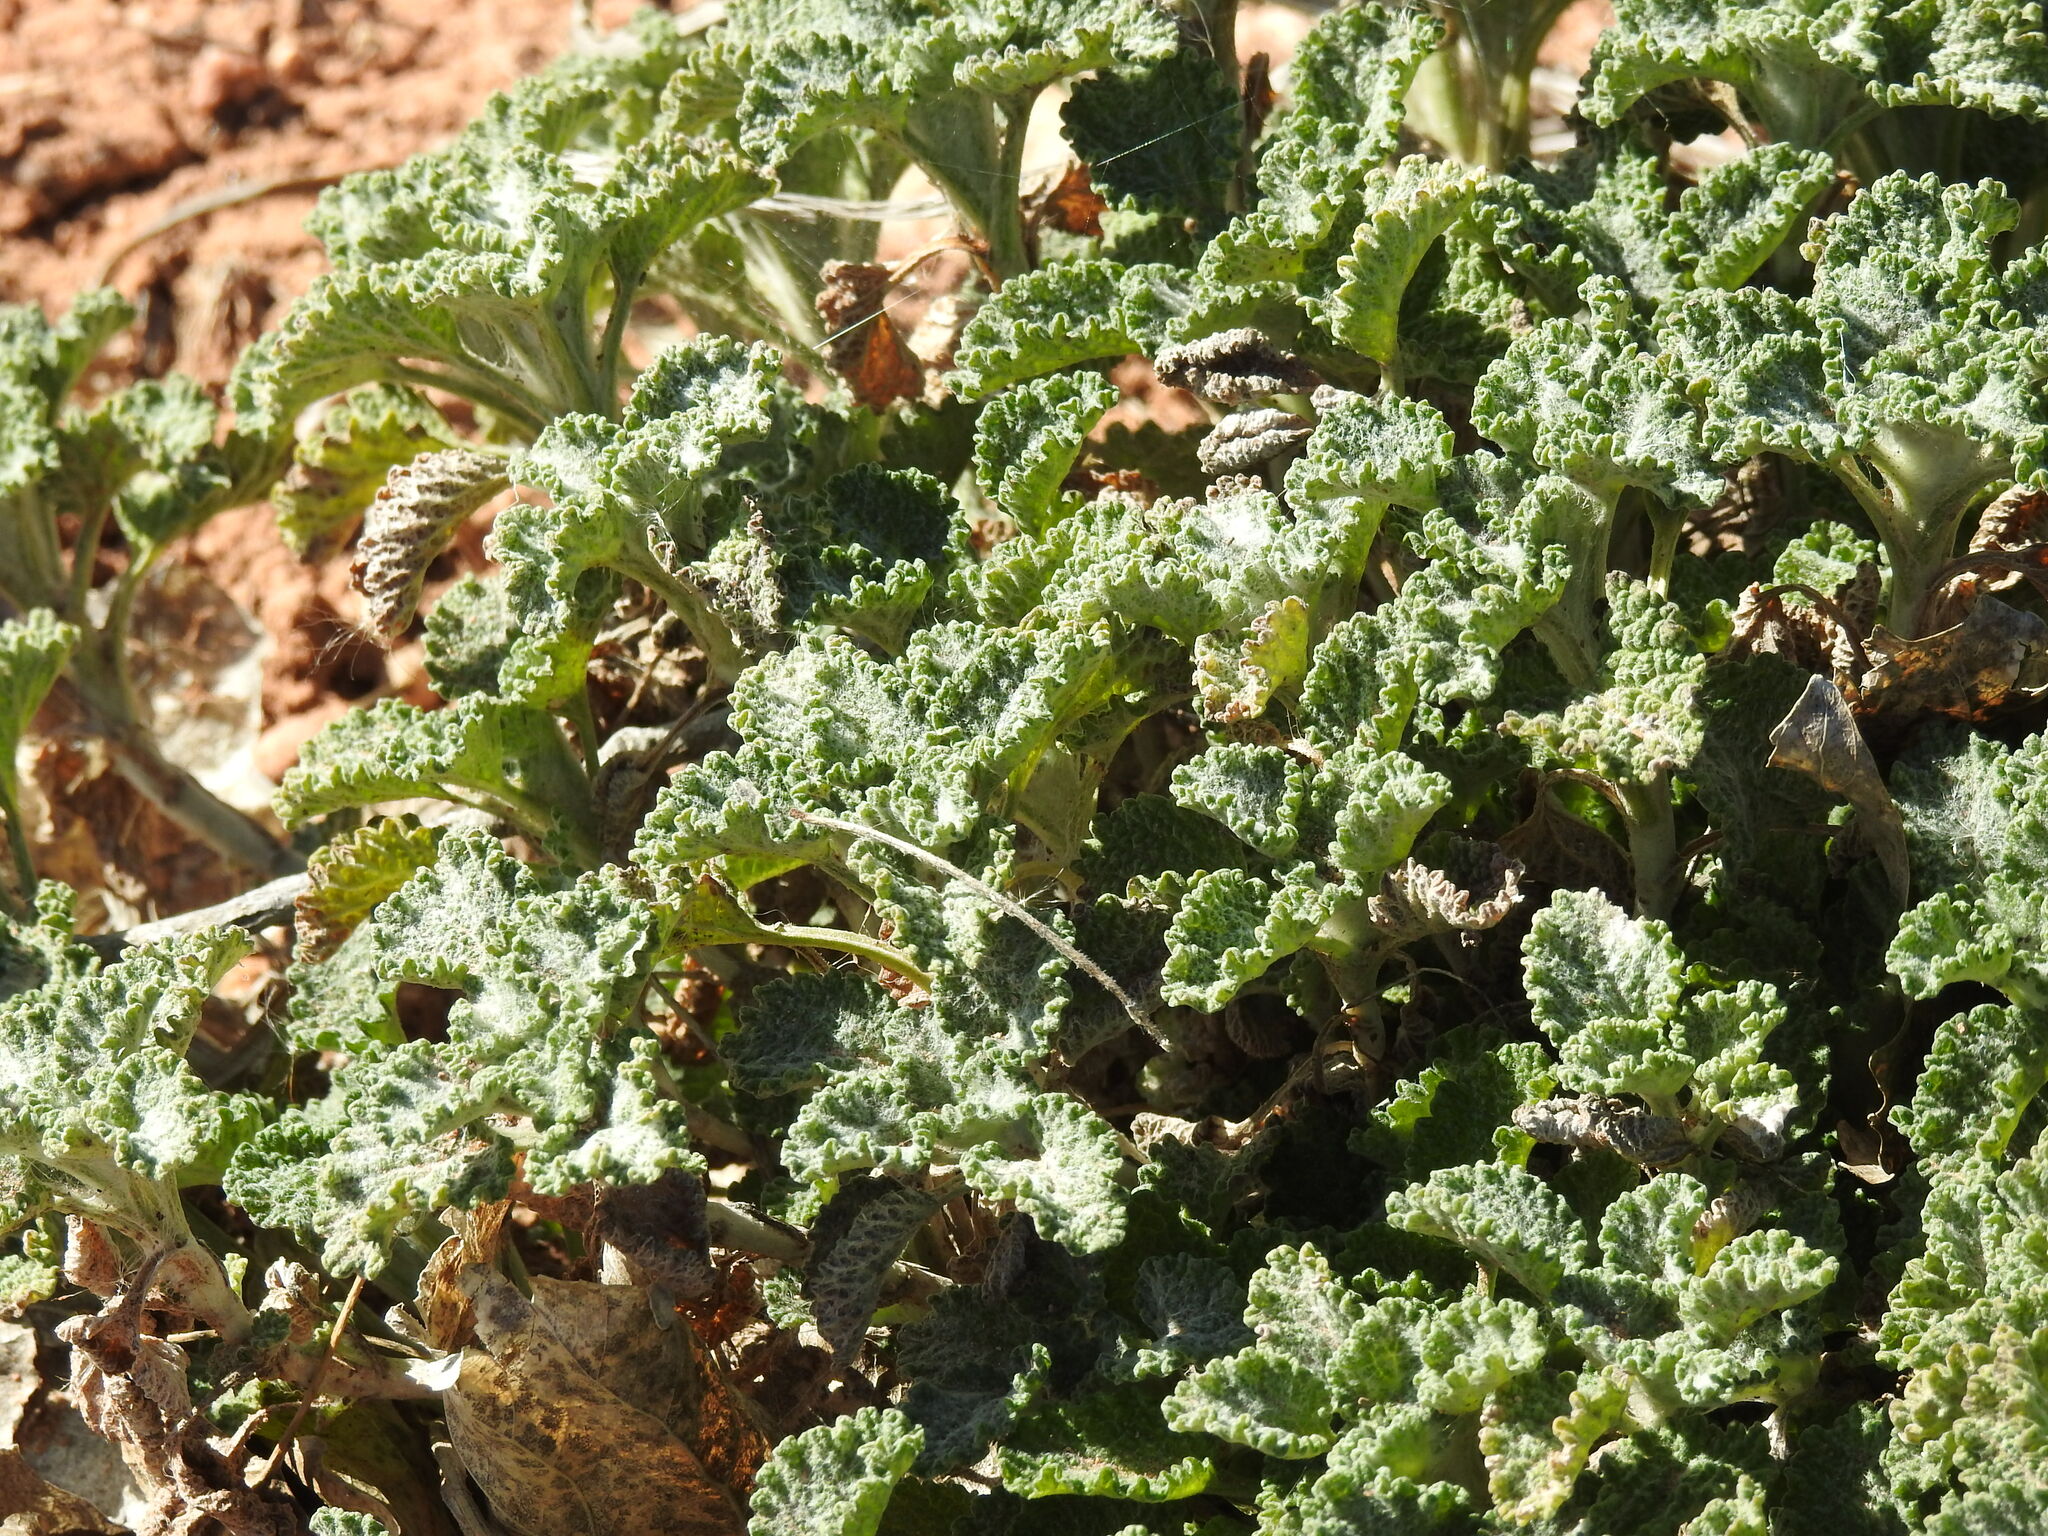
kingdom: Plantae
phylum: Tracheophyta
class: Magnoliopsida
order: Lamiales
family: Lamiaceae
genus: Marrubium
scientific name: Marrubium vulgare
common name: Horehound
